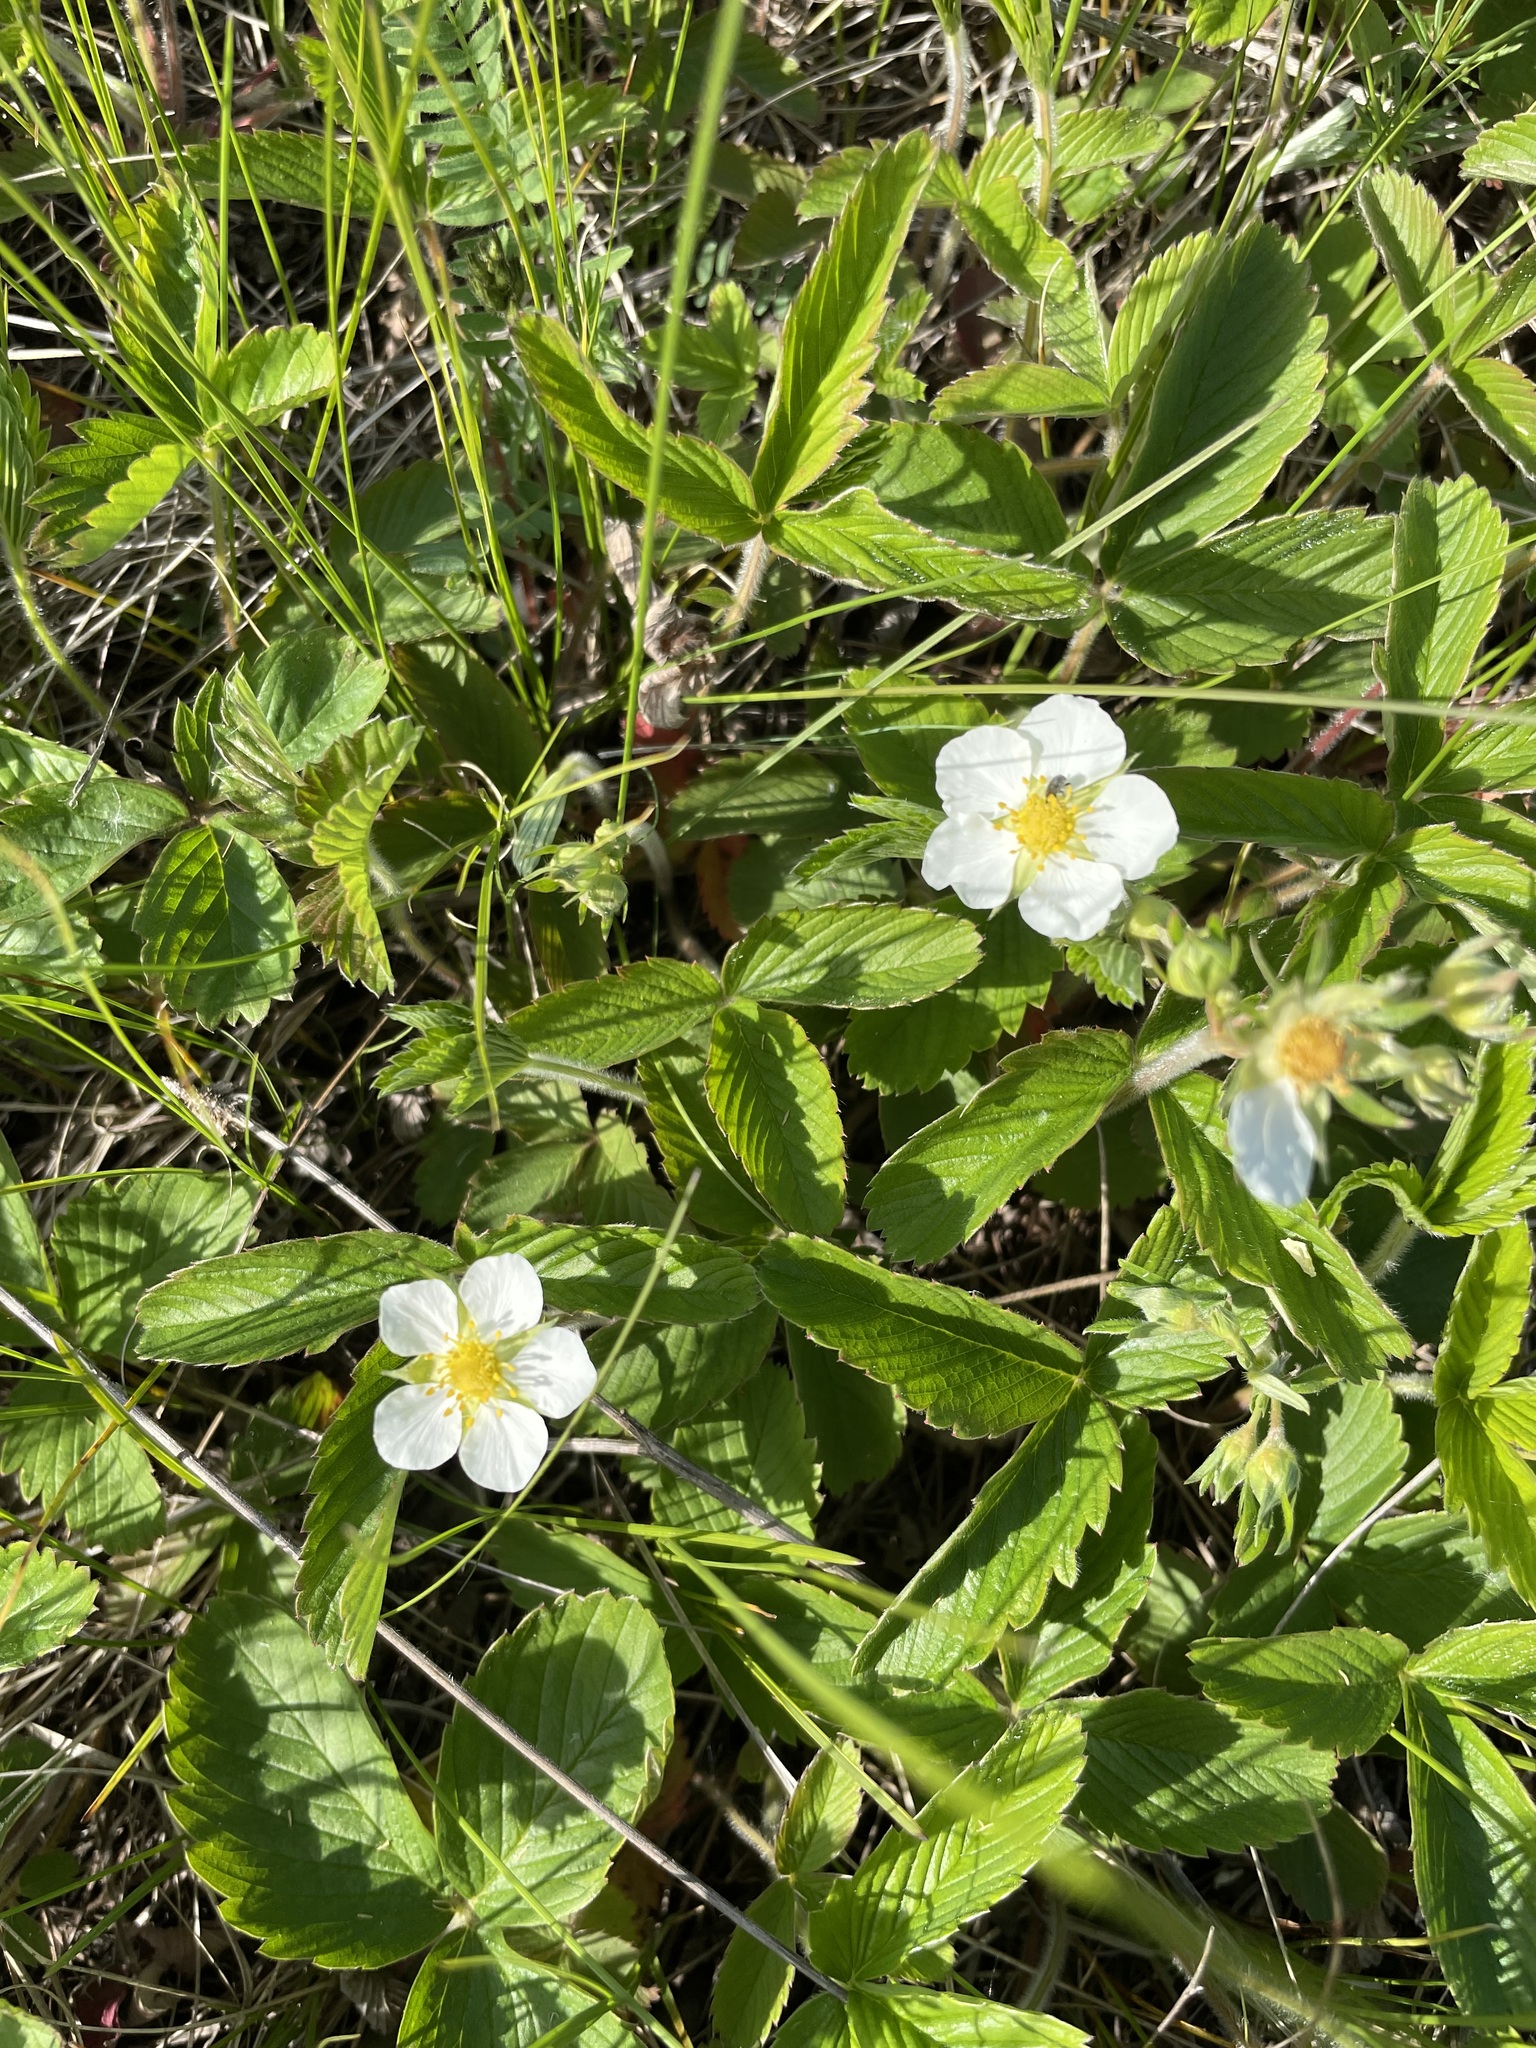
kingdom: Plantae
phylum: Tracheophyta
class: Magnoliopsida
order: Rosales
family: Rosaceae
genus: Fragaria
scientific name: Fragaria viridis
